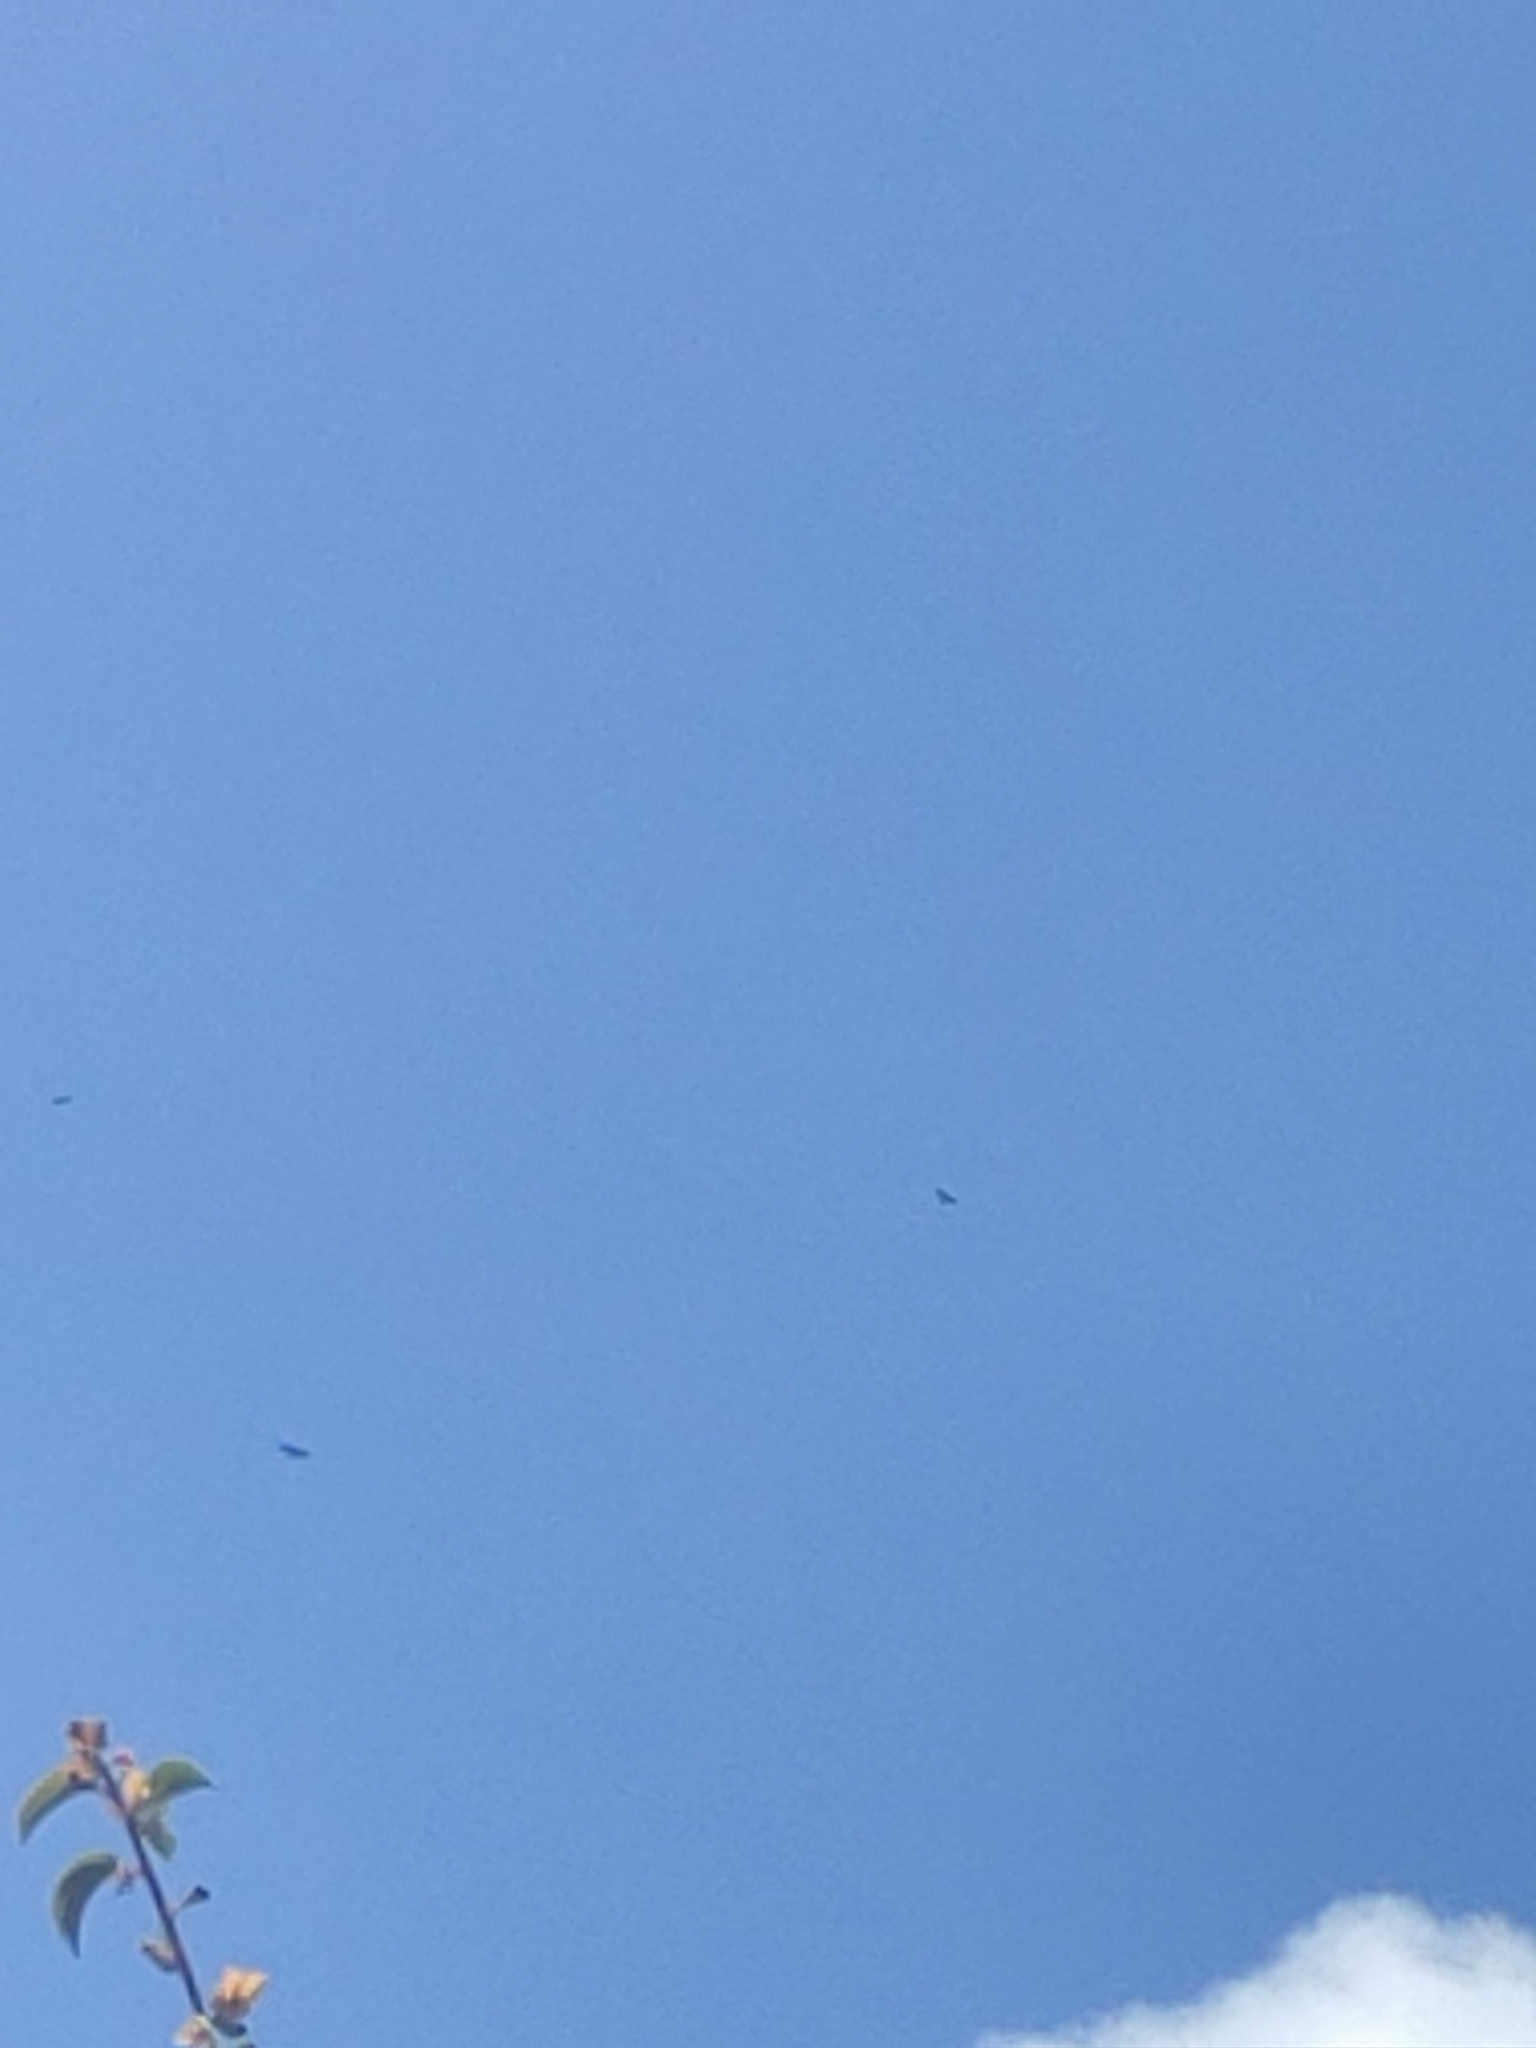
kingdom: Animalia
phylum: Chordata
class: Aves
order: Accipitriformes
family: Cathartidae
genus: Coragyps
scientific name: Coragyps atratus
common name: Black vulture
